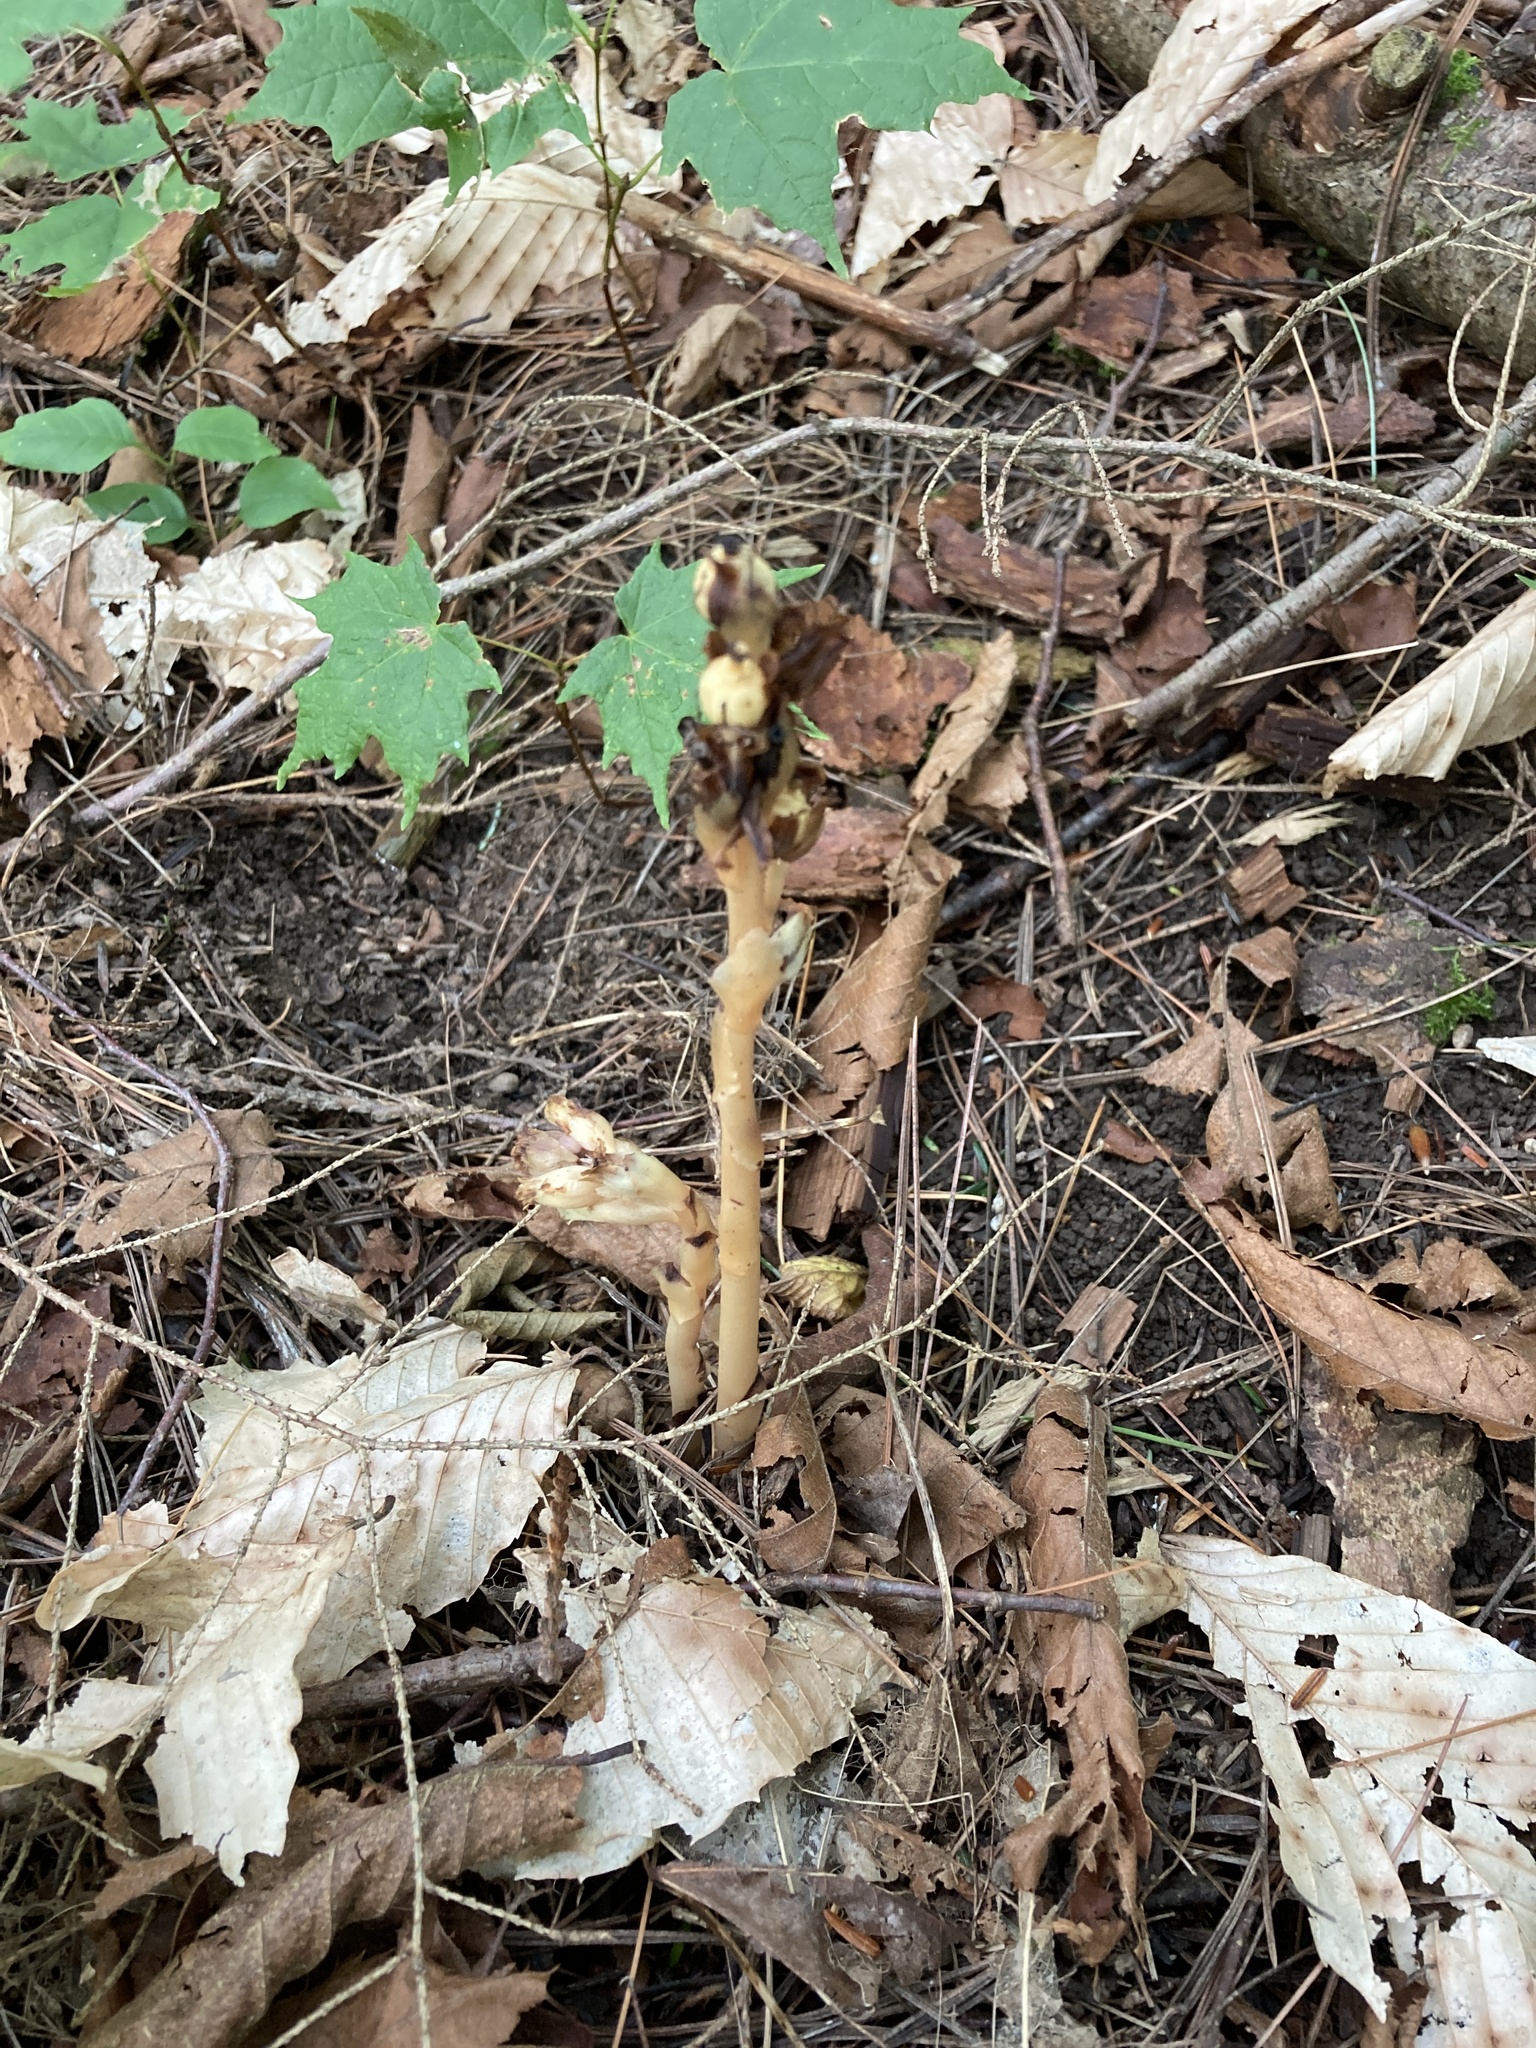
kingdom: Plantae
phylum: Tracheophyta
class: Magnoliopsida
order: Ericales
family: Ericaceae
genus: Hypopitys
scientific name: Hypopitys monotropa
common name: Yellow bird's-nest
